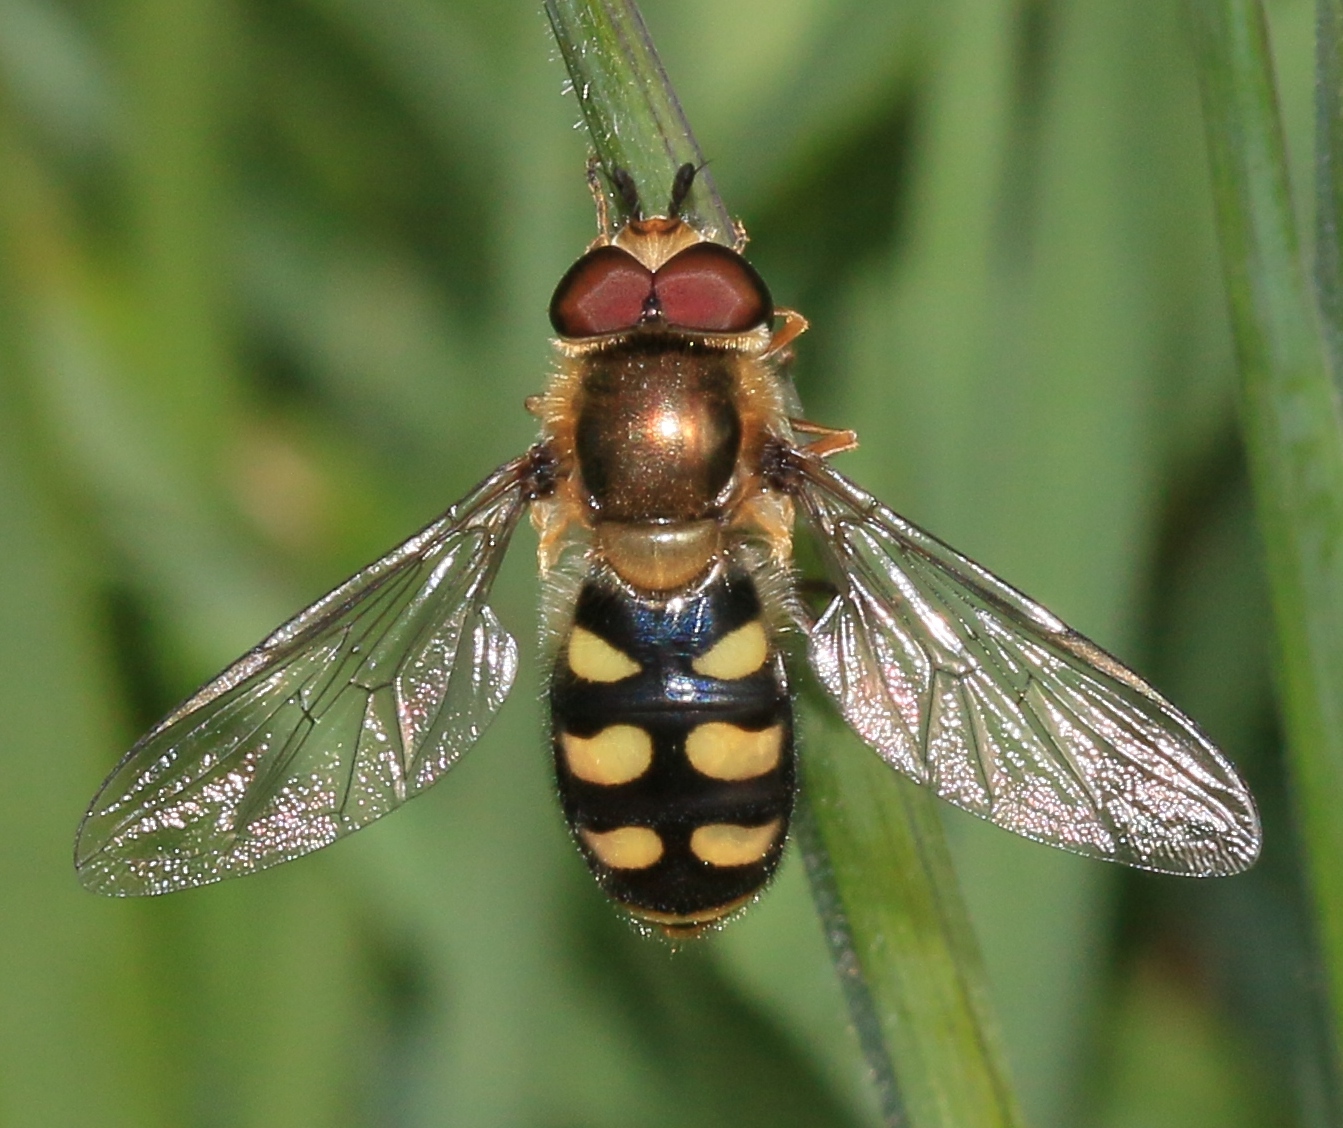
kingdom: Animalia
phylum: Arthropoda
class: Insecta
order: Diptera
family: Syrphidae
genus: Eupeodes
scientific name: Eupeodes luniger
